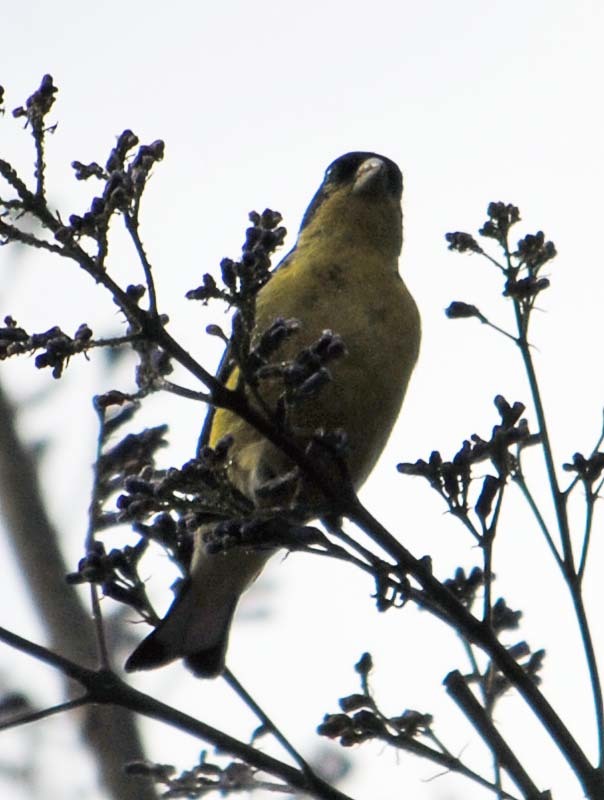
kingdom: Animalia
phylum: Chordata
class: Aves
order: Passeriformes
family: Fringillidae
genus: Spinus
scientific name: Spinus psaltria
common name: Lesser goldfinch
